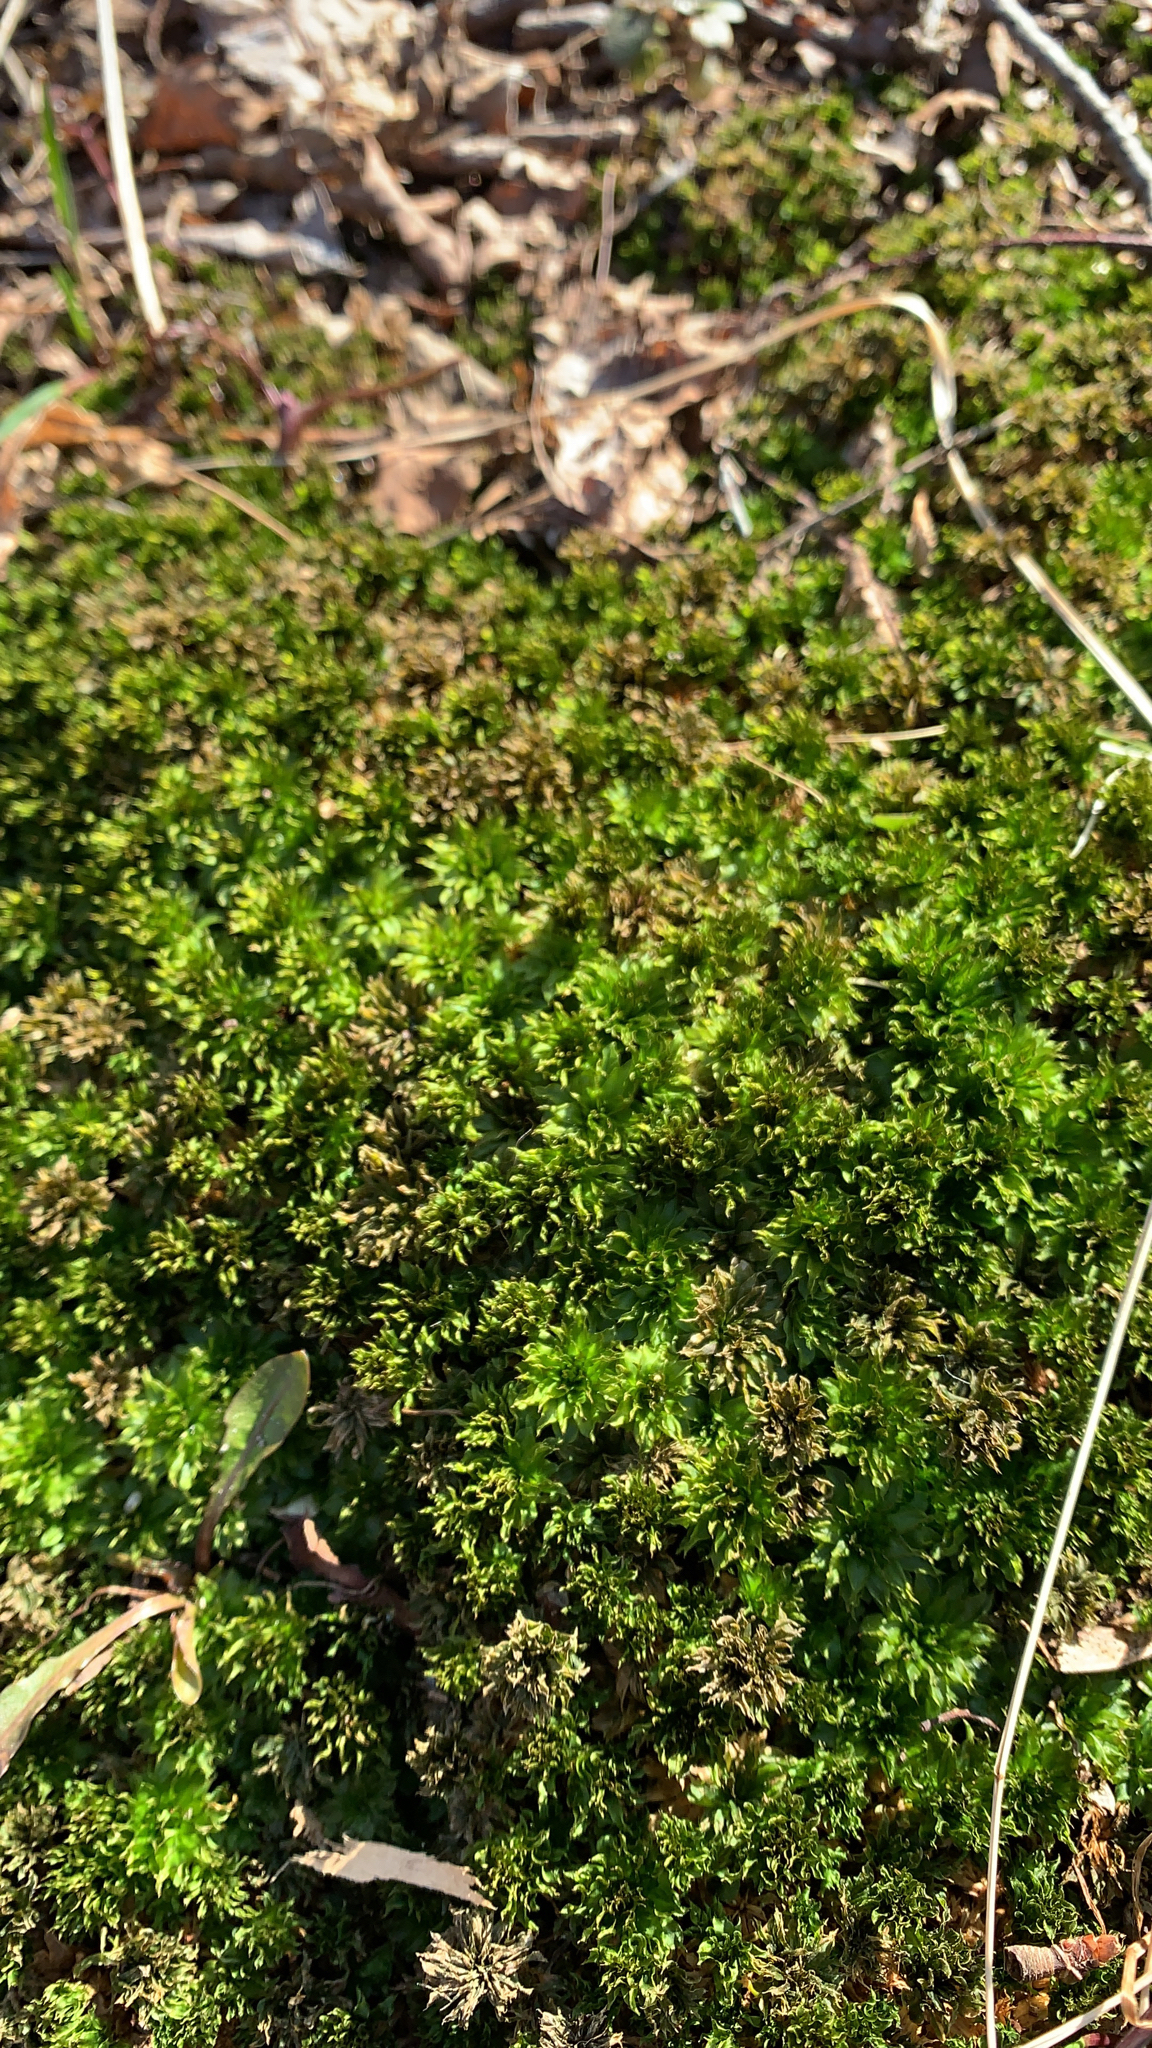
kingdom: Plantae
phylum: Bryophyta
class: Bryopsida
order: Bryales
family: Bryaceae
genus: Rhodobryum
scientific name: Rhodobryum ontariense
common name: Ontario rhodobryum moss
